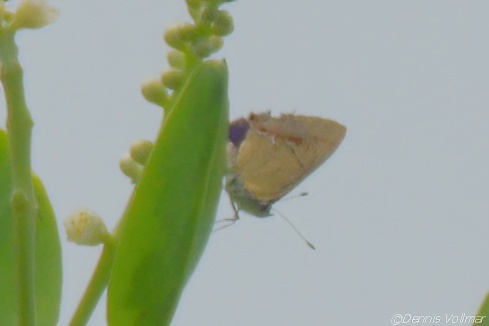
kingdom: Animalia
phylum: Arthropoda
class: Insecta
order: Lepidoptera
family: Lycaenidae
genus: Thecla
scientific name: Thecla maesites
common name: Verde azul hairstreak
